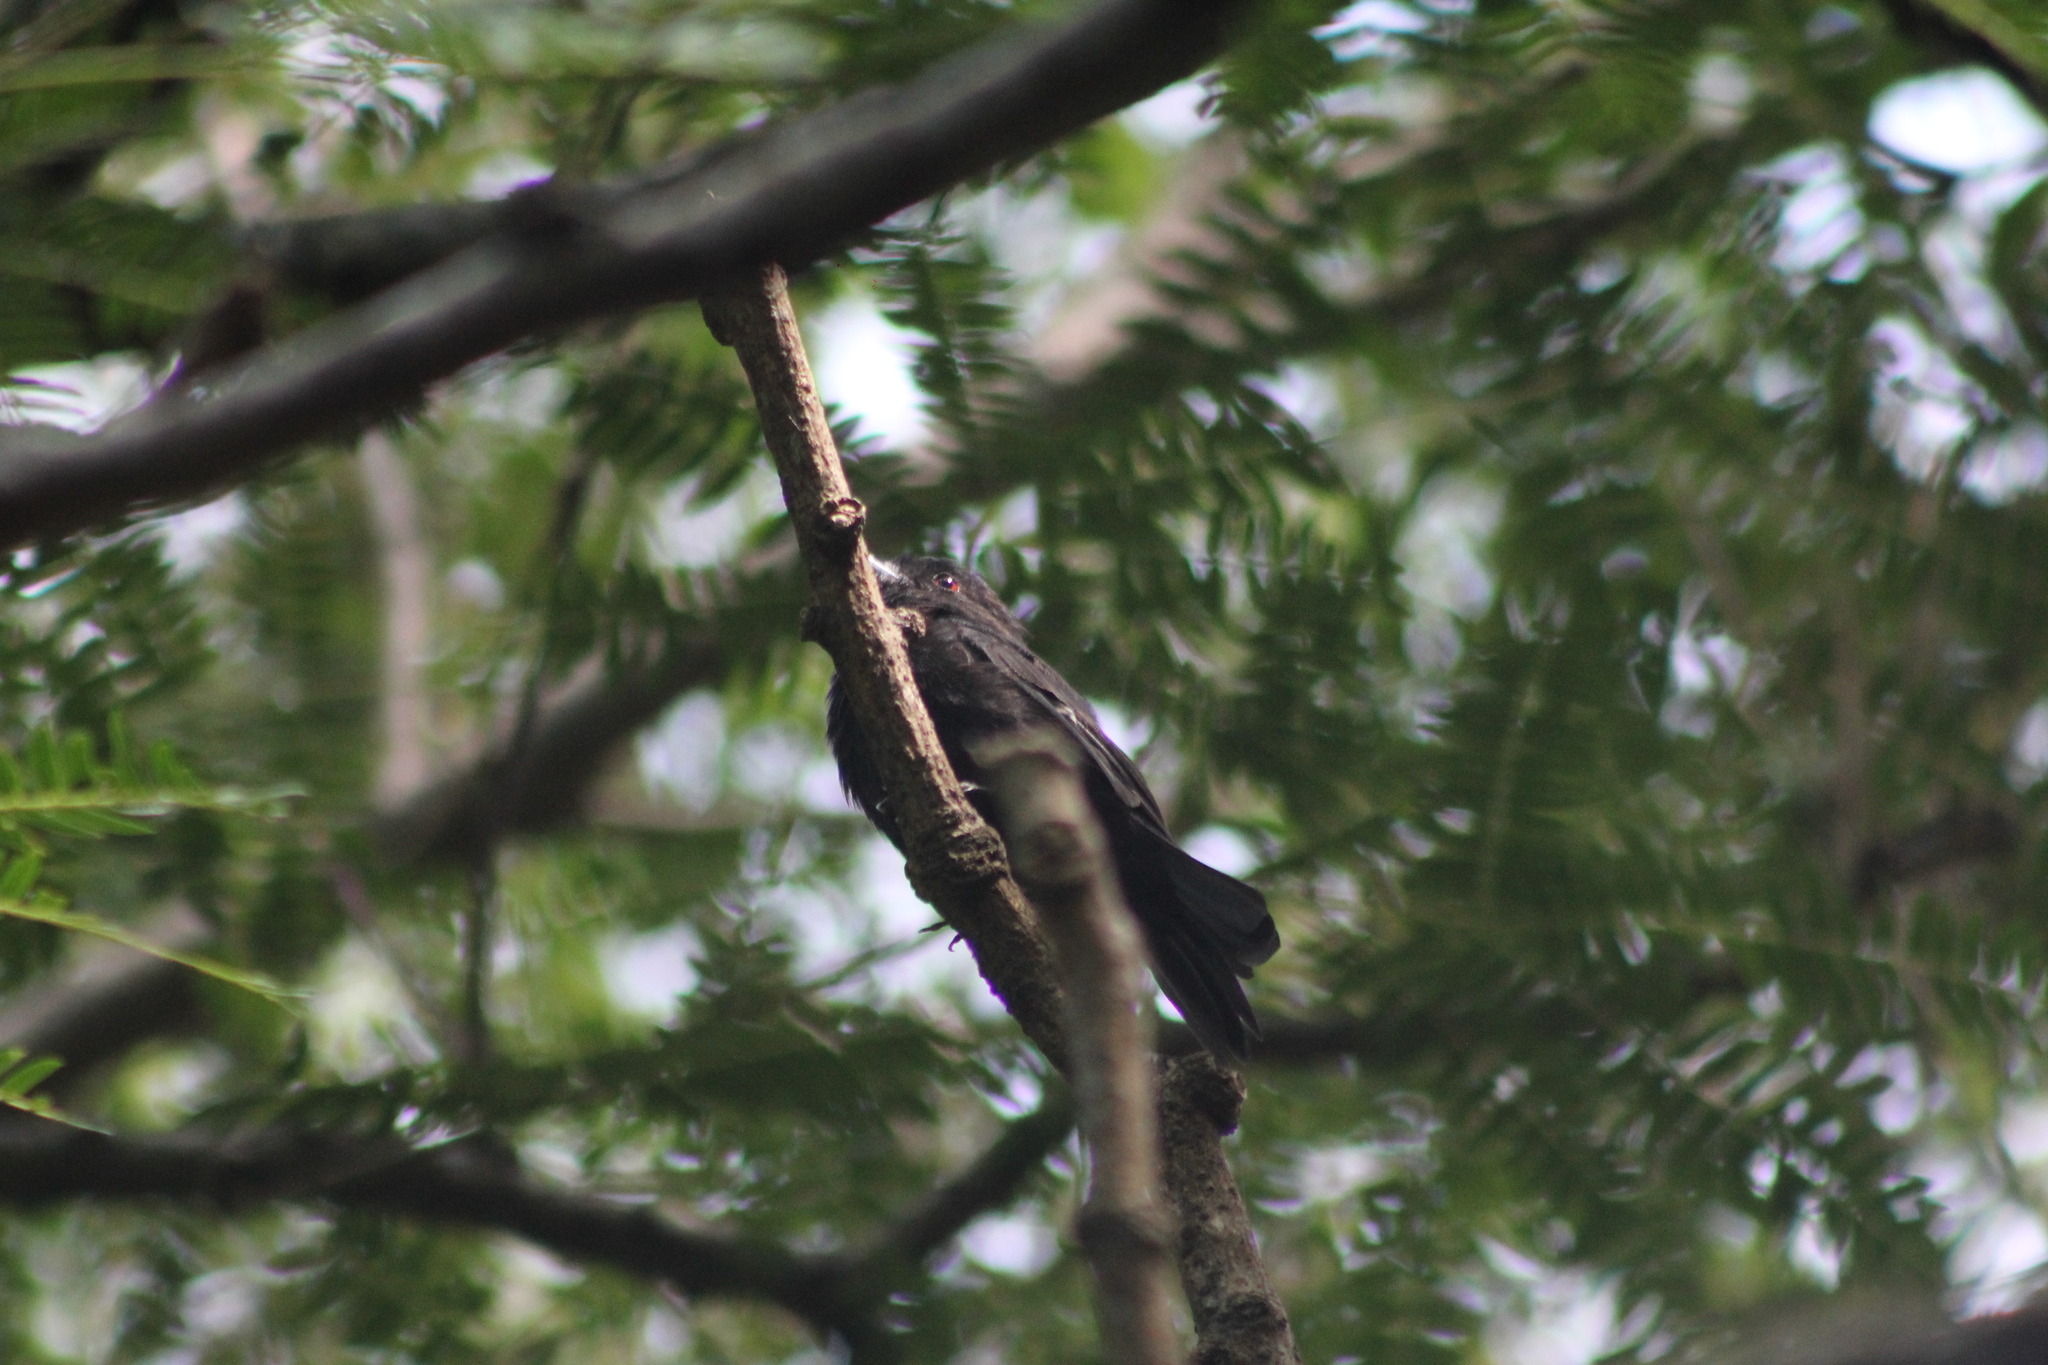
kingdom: Animalia
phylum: Chordata
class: Aves
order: Passeriformes
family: Tyrannidae
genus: Knipolegus
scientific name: Knipolegus cyanirostris
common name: Blue-billed black tyrant
